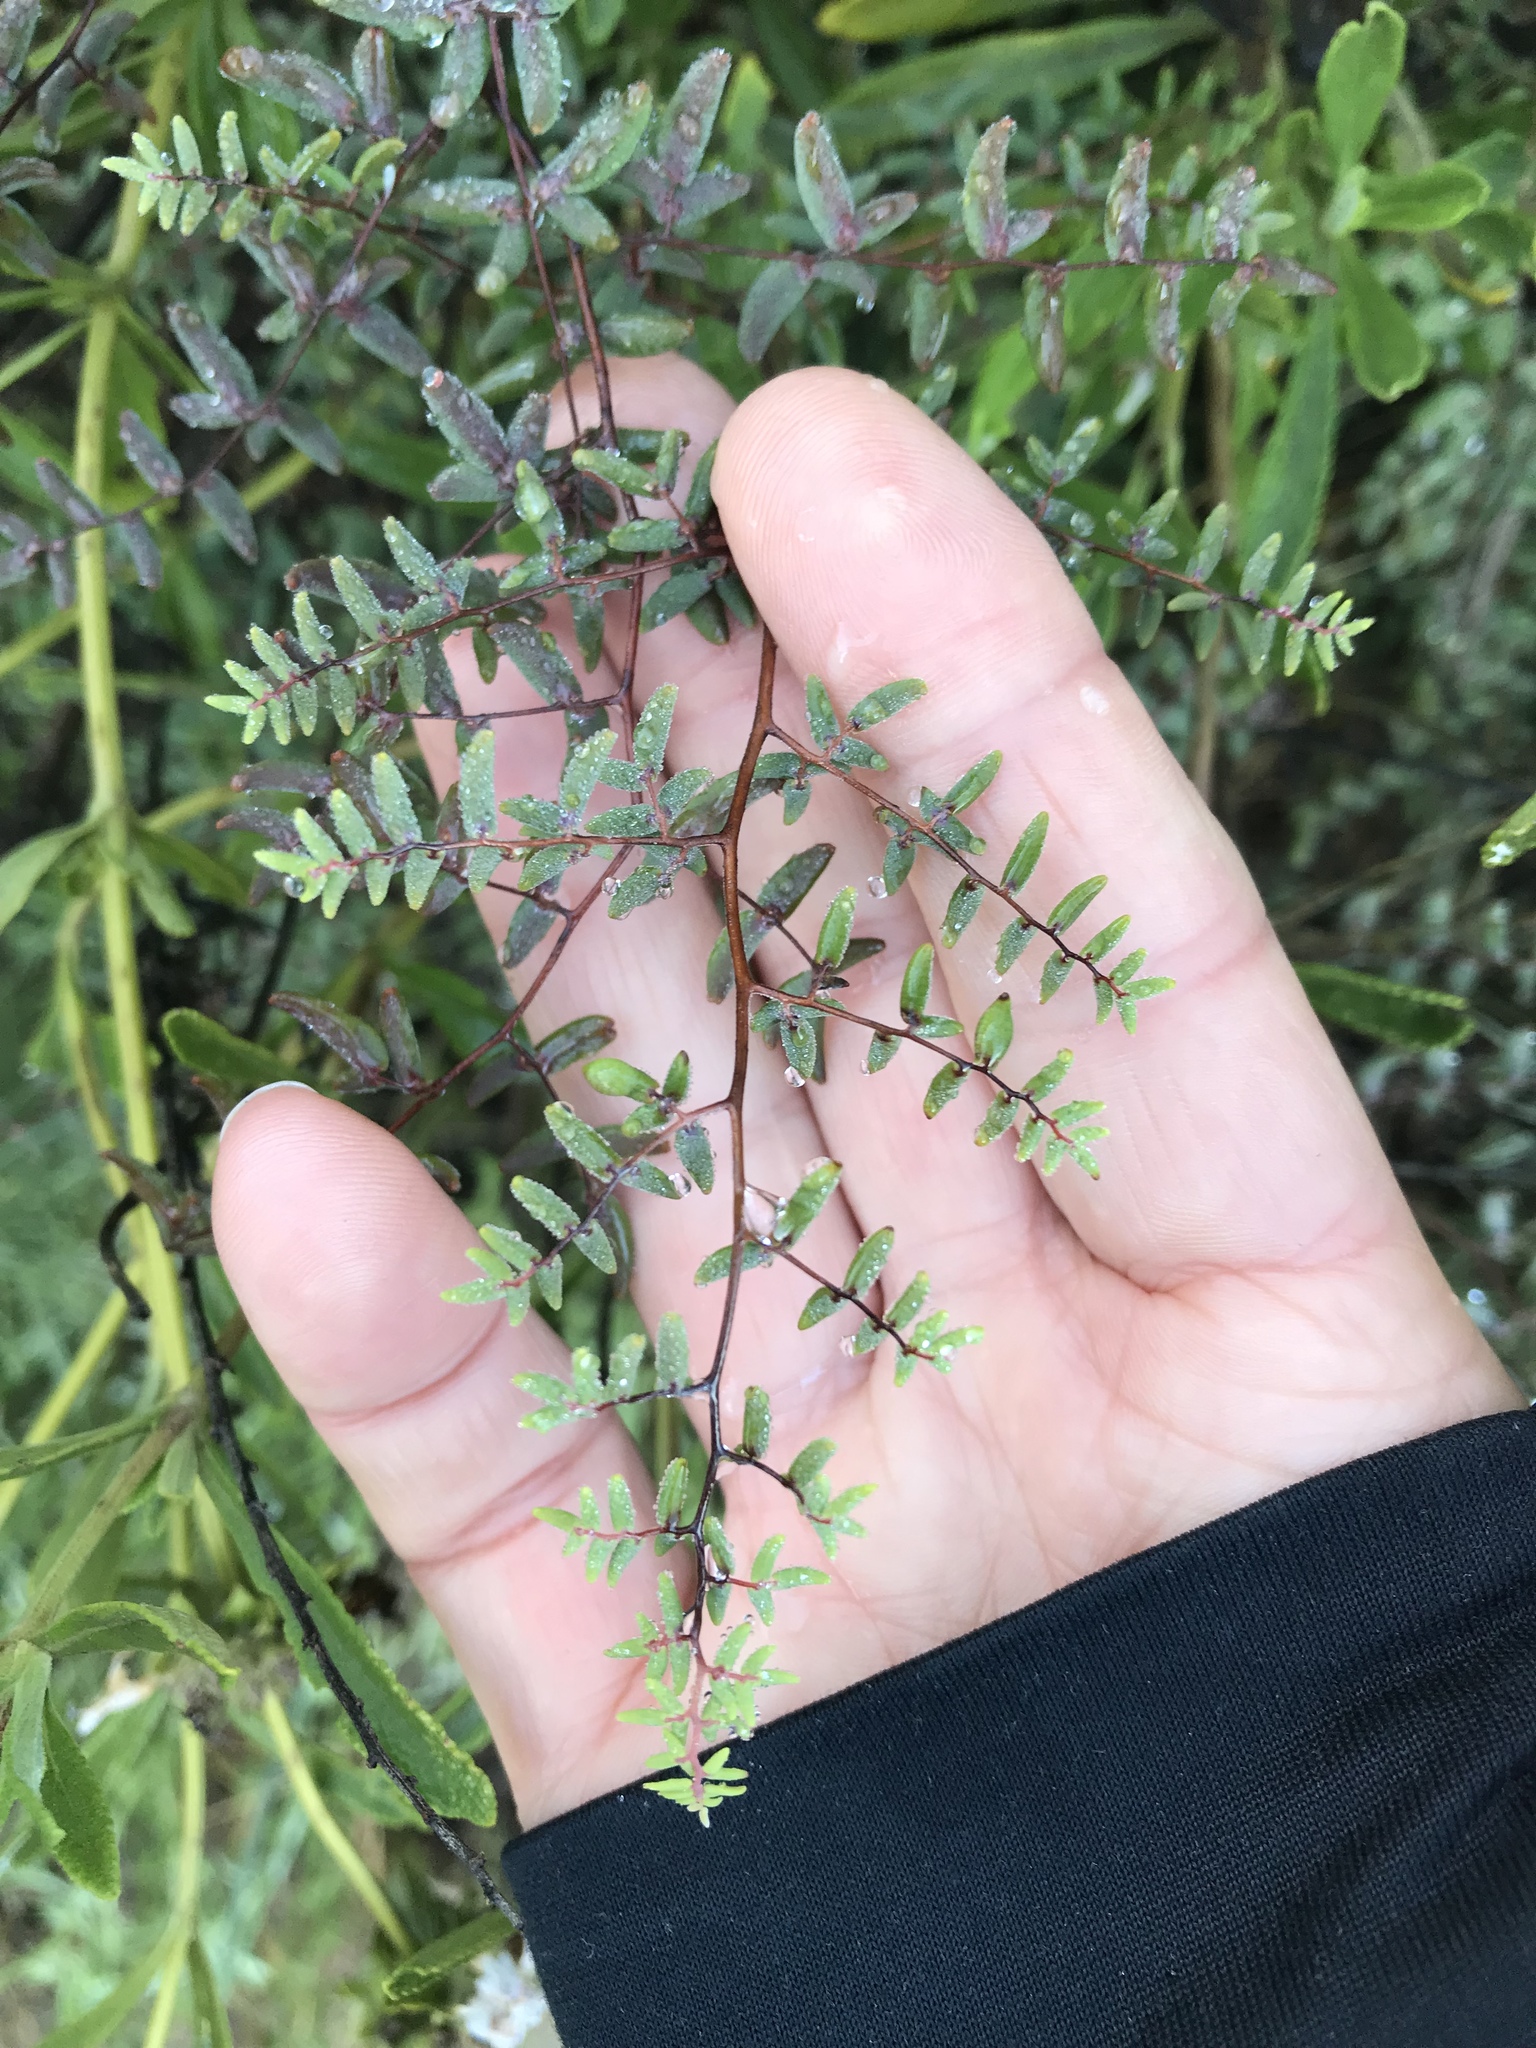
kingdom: Plantae
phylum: Tracheophyta
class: Polypodiopsida
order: Polypodiales
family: Pteridaceae
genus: Pellaea
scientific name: Pellaea andromedifolia
